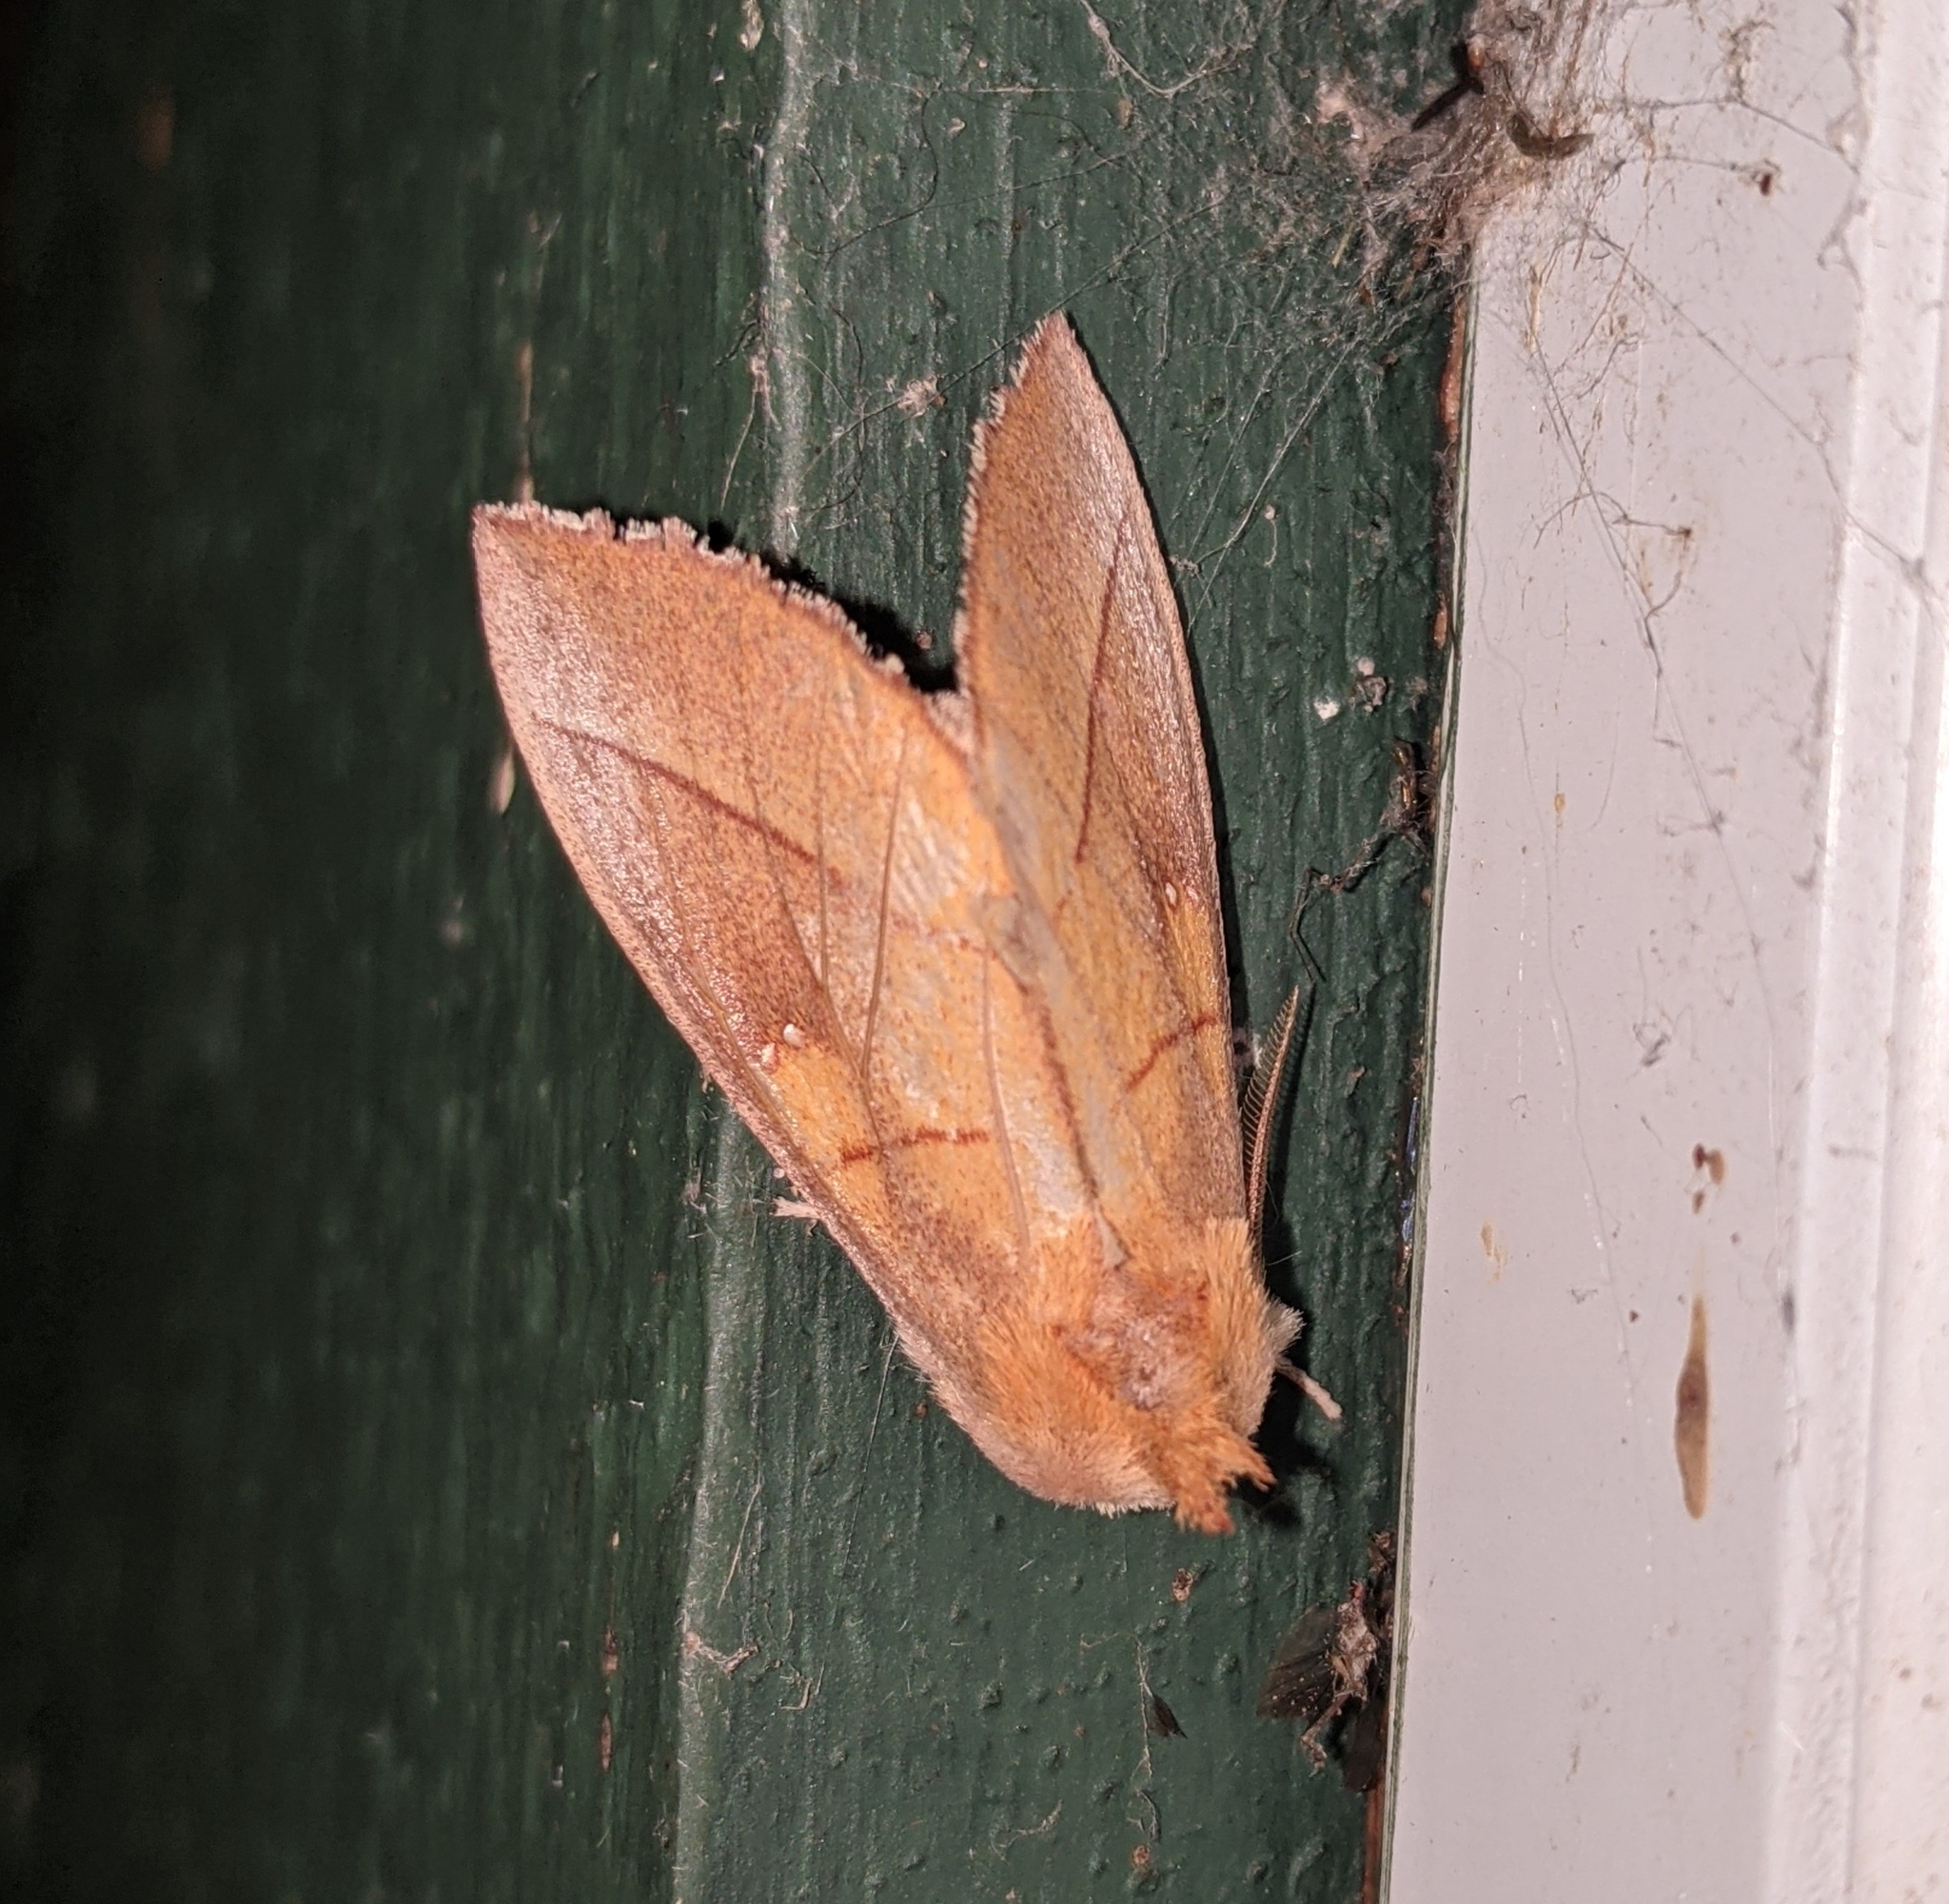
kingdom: Animalia
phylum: Arthropoda
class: Insecta
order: Lepidoptera
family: Notodontidae
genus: Nadata
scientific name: Nadata gibbosa
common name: White-dotted prominent
